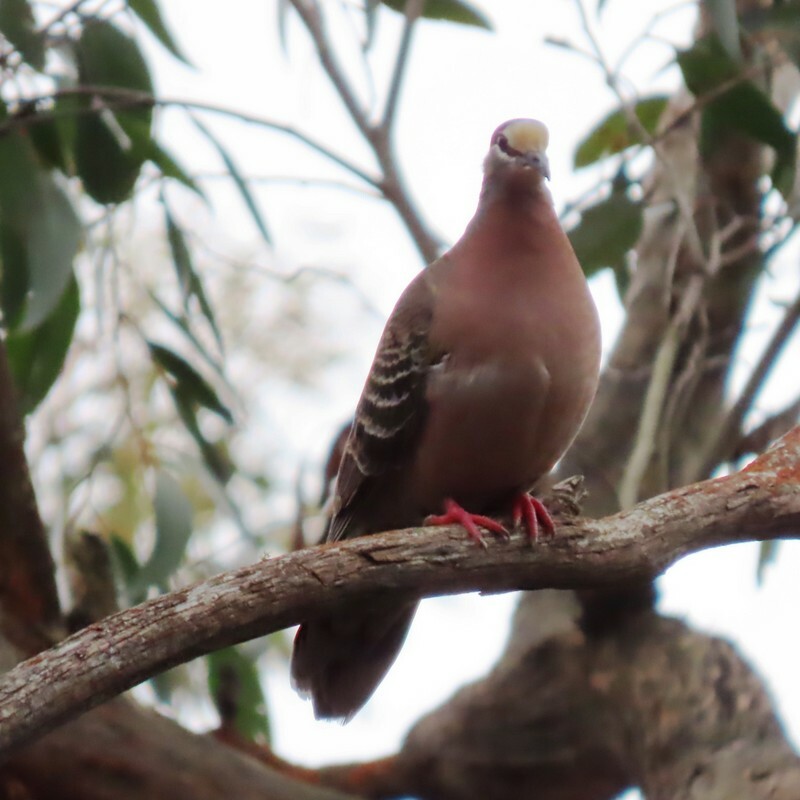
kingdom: Animalia
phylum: Chordata
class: Aves
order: Columbiformes
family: Columbidae
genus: Phaps
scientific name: Phaps chalcoptera
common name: Common bronzewing
